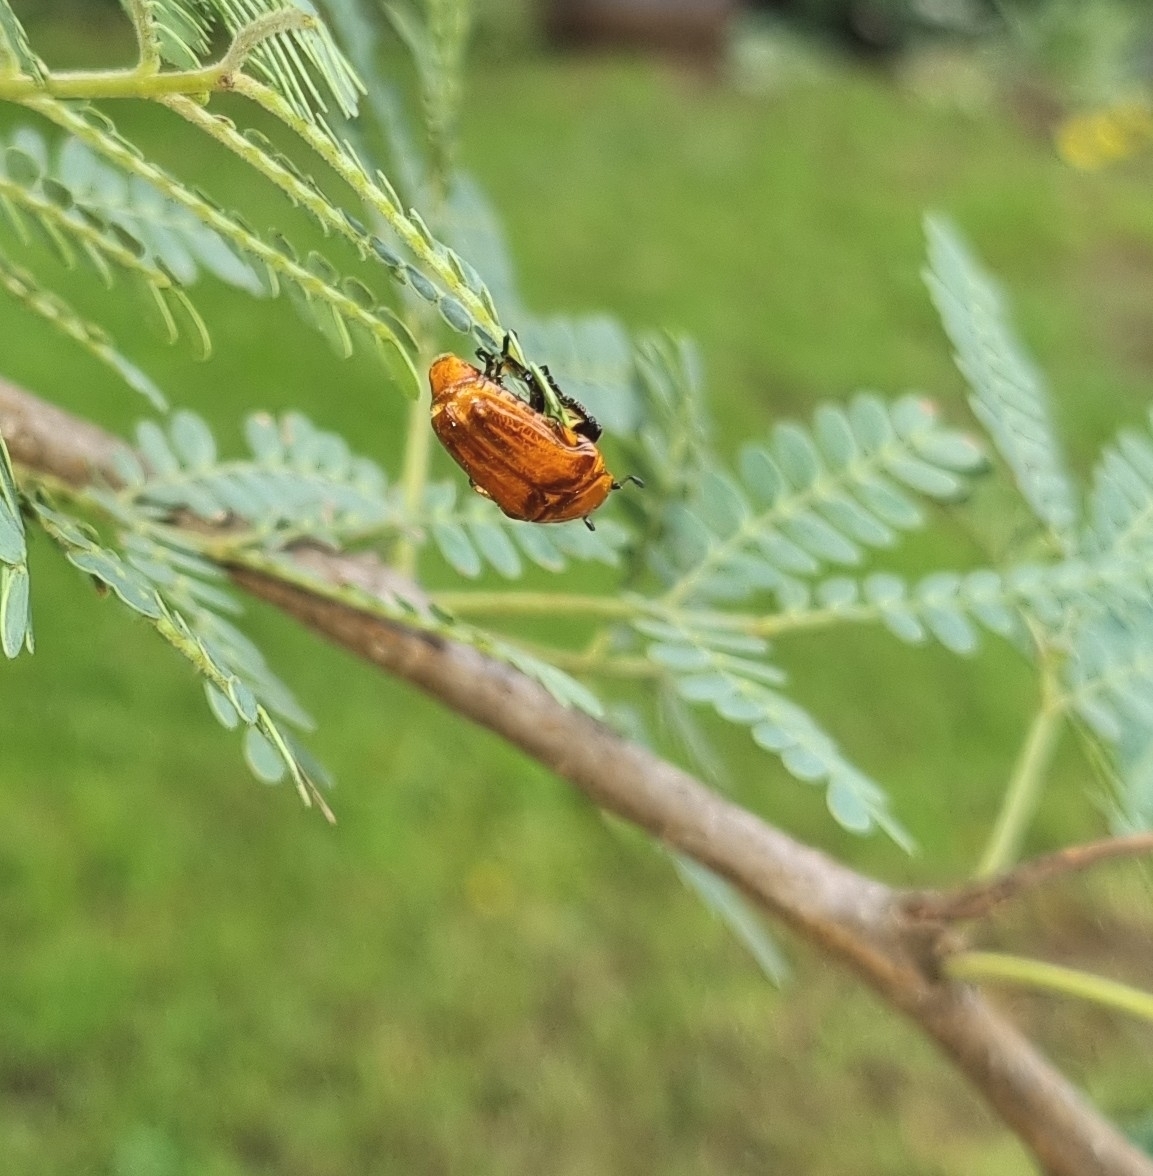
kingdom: Animalia
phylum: Arthropoda
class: Insecta
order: Coleoptera
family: Scarabaeidae
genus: Leucocelis
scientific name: Leucocelis rubra
